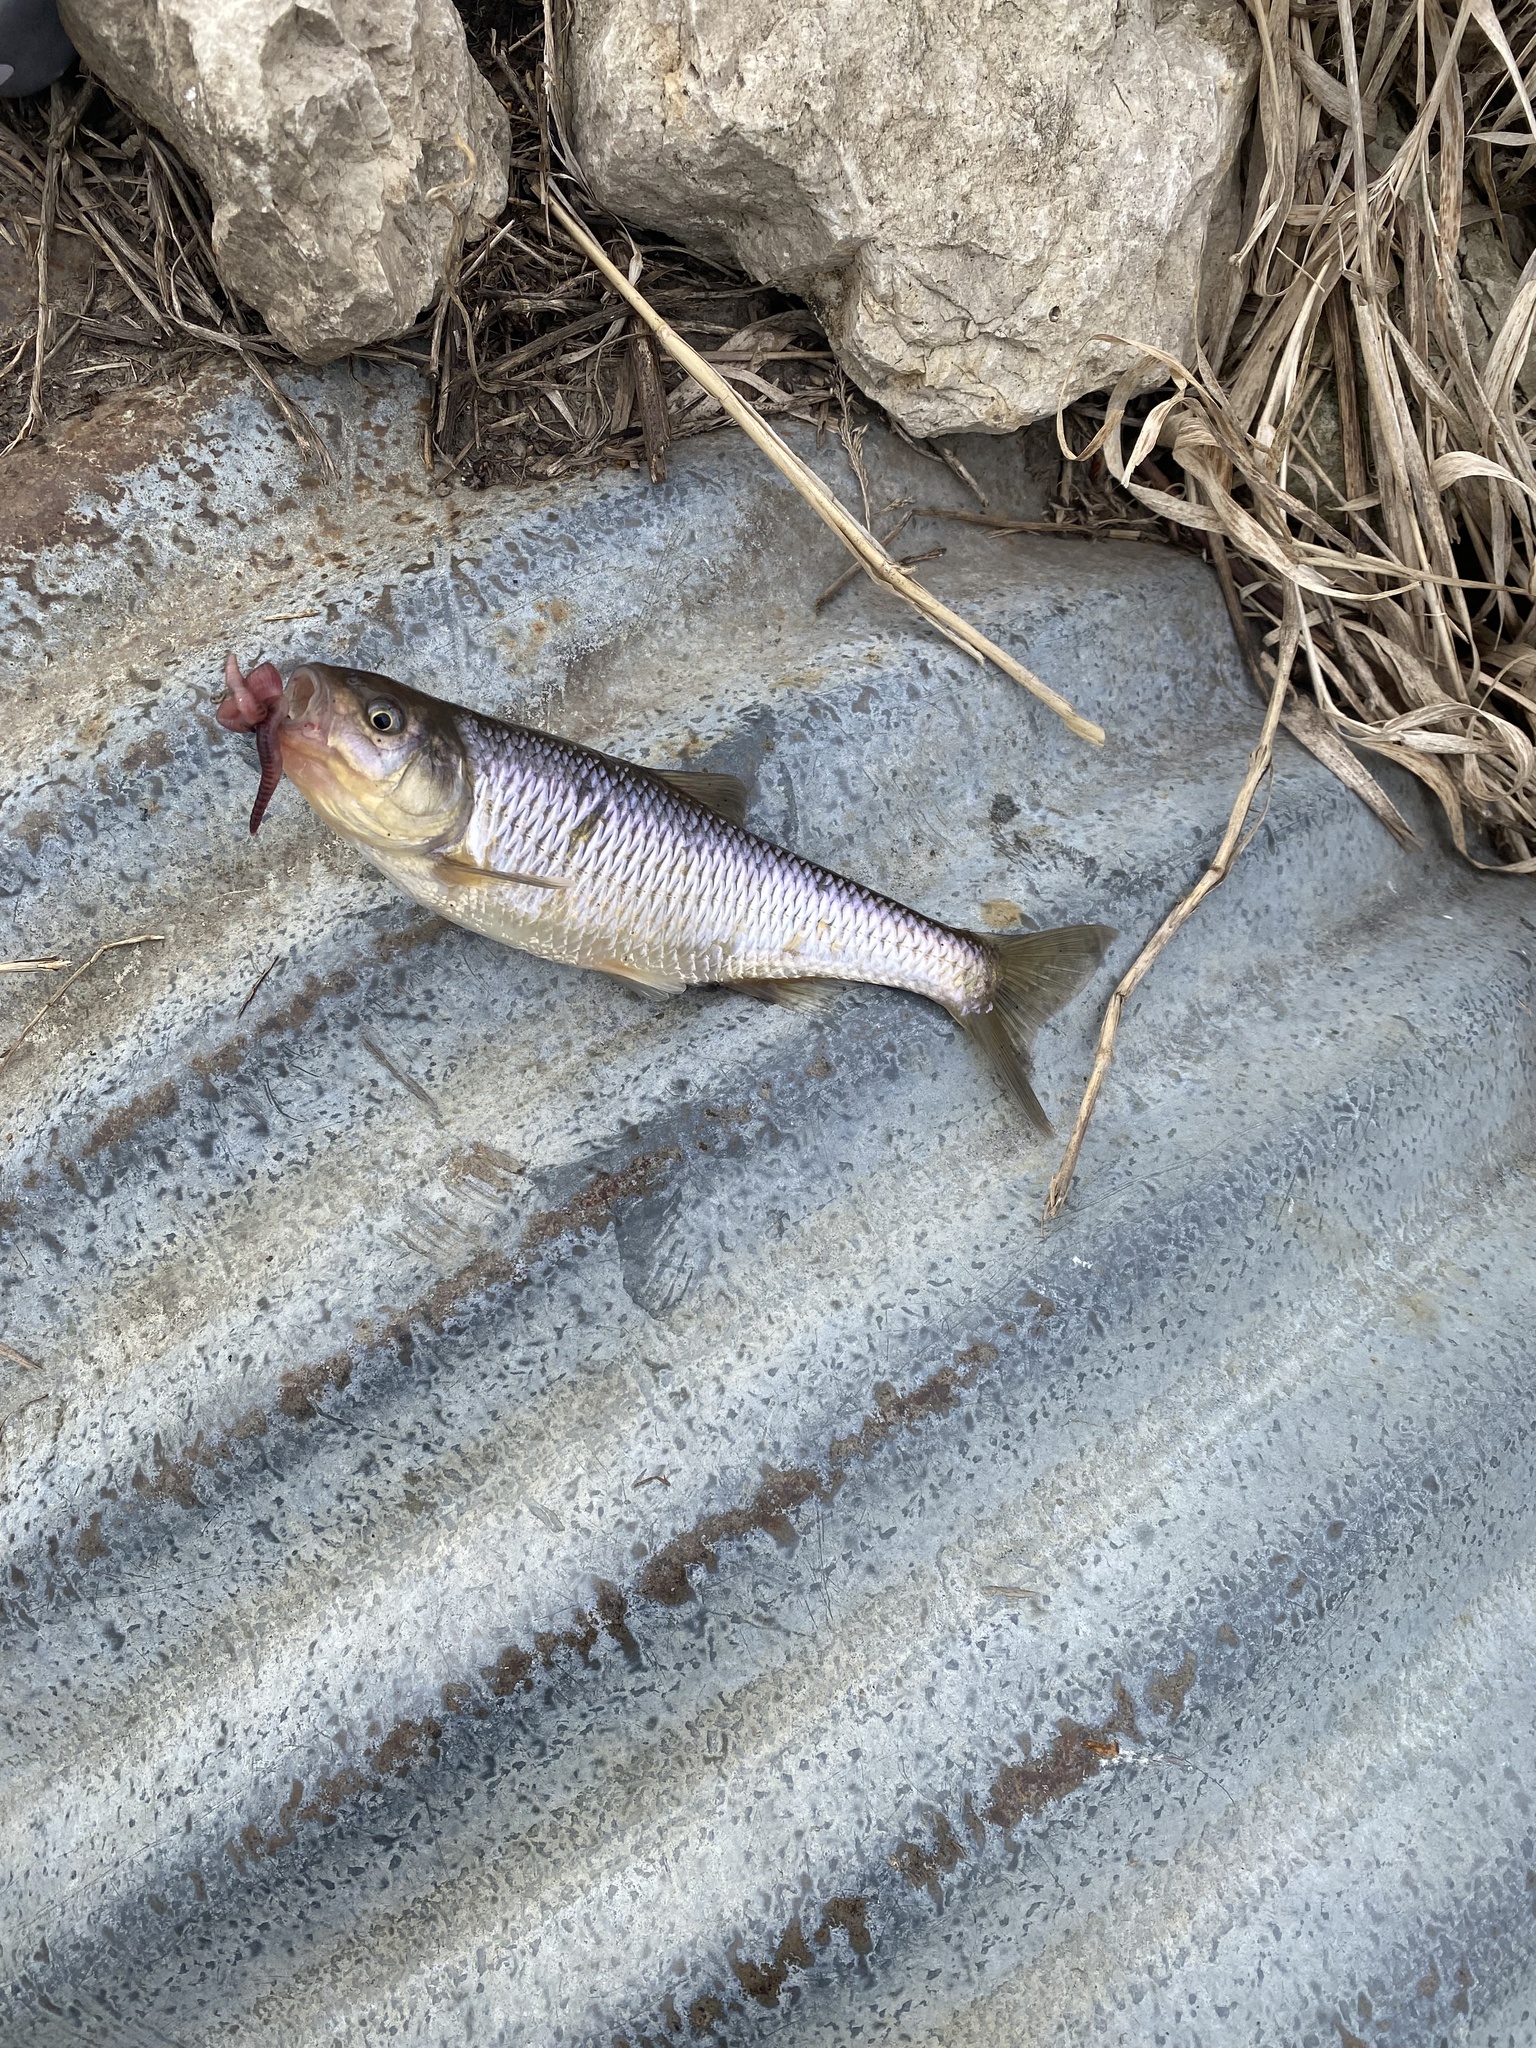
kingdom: Animalia
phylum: Chordata
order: Cypriniformes
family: Cyprinidae
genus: Luxilus
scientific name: Luxilus cornutus
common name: Common shiner
